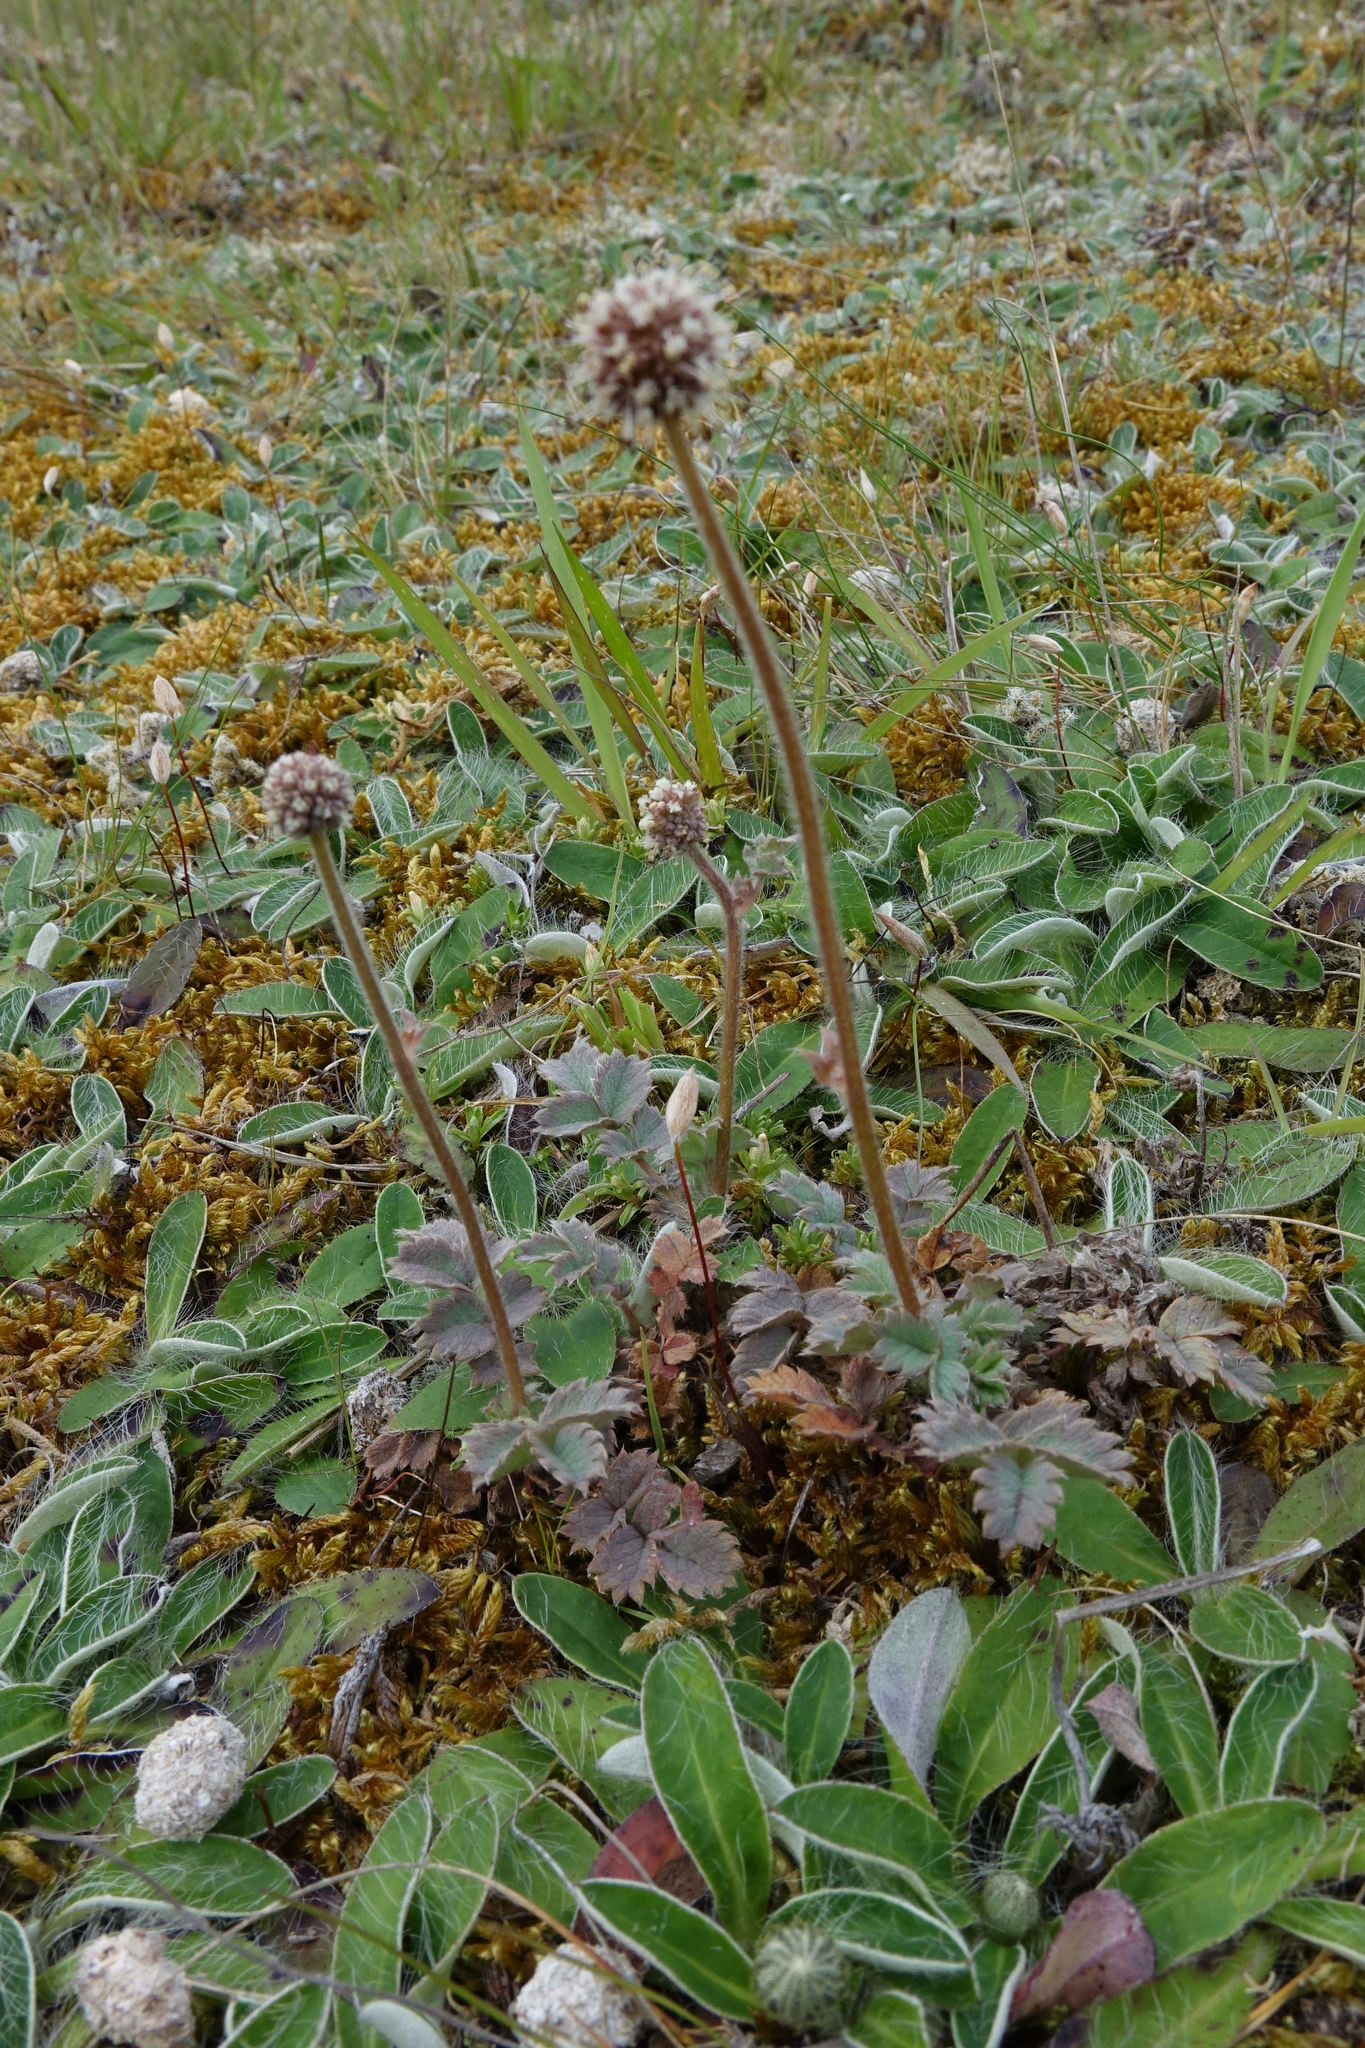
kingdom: Plantae
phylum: Tracheophyta
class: Magnoliopsida
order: Rosales
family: Rosaceae
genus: Acaena
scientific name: Acaena caesiiglauca
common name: Glaucous pirri-pirri-bur
